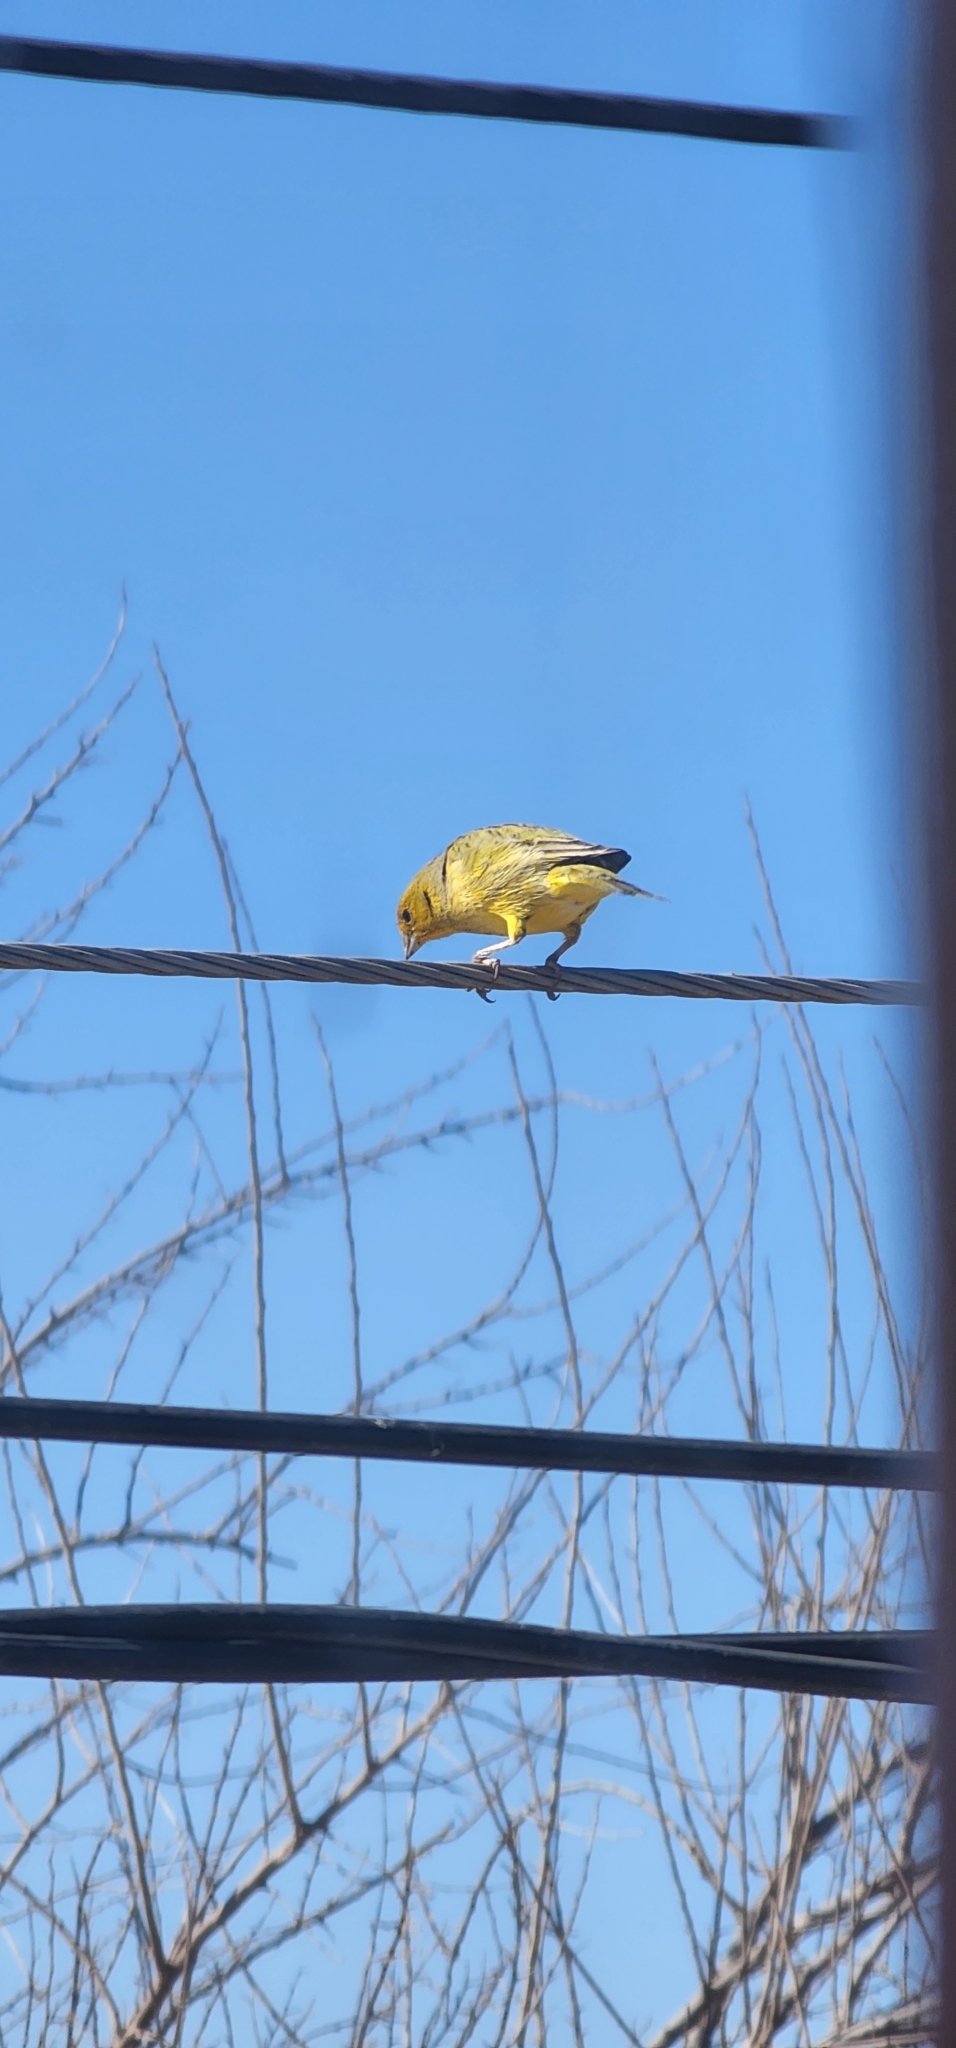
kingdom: Animalia
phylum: Chordata
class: Aves
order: Passeriformes
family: Thraupidae
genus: Sicalis
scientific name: Sicalis flaveola
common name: Saffron finch
